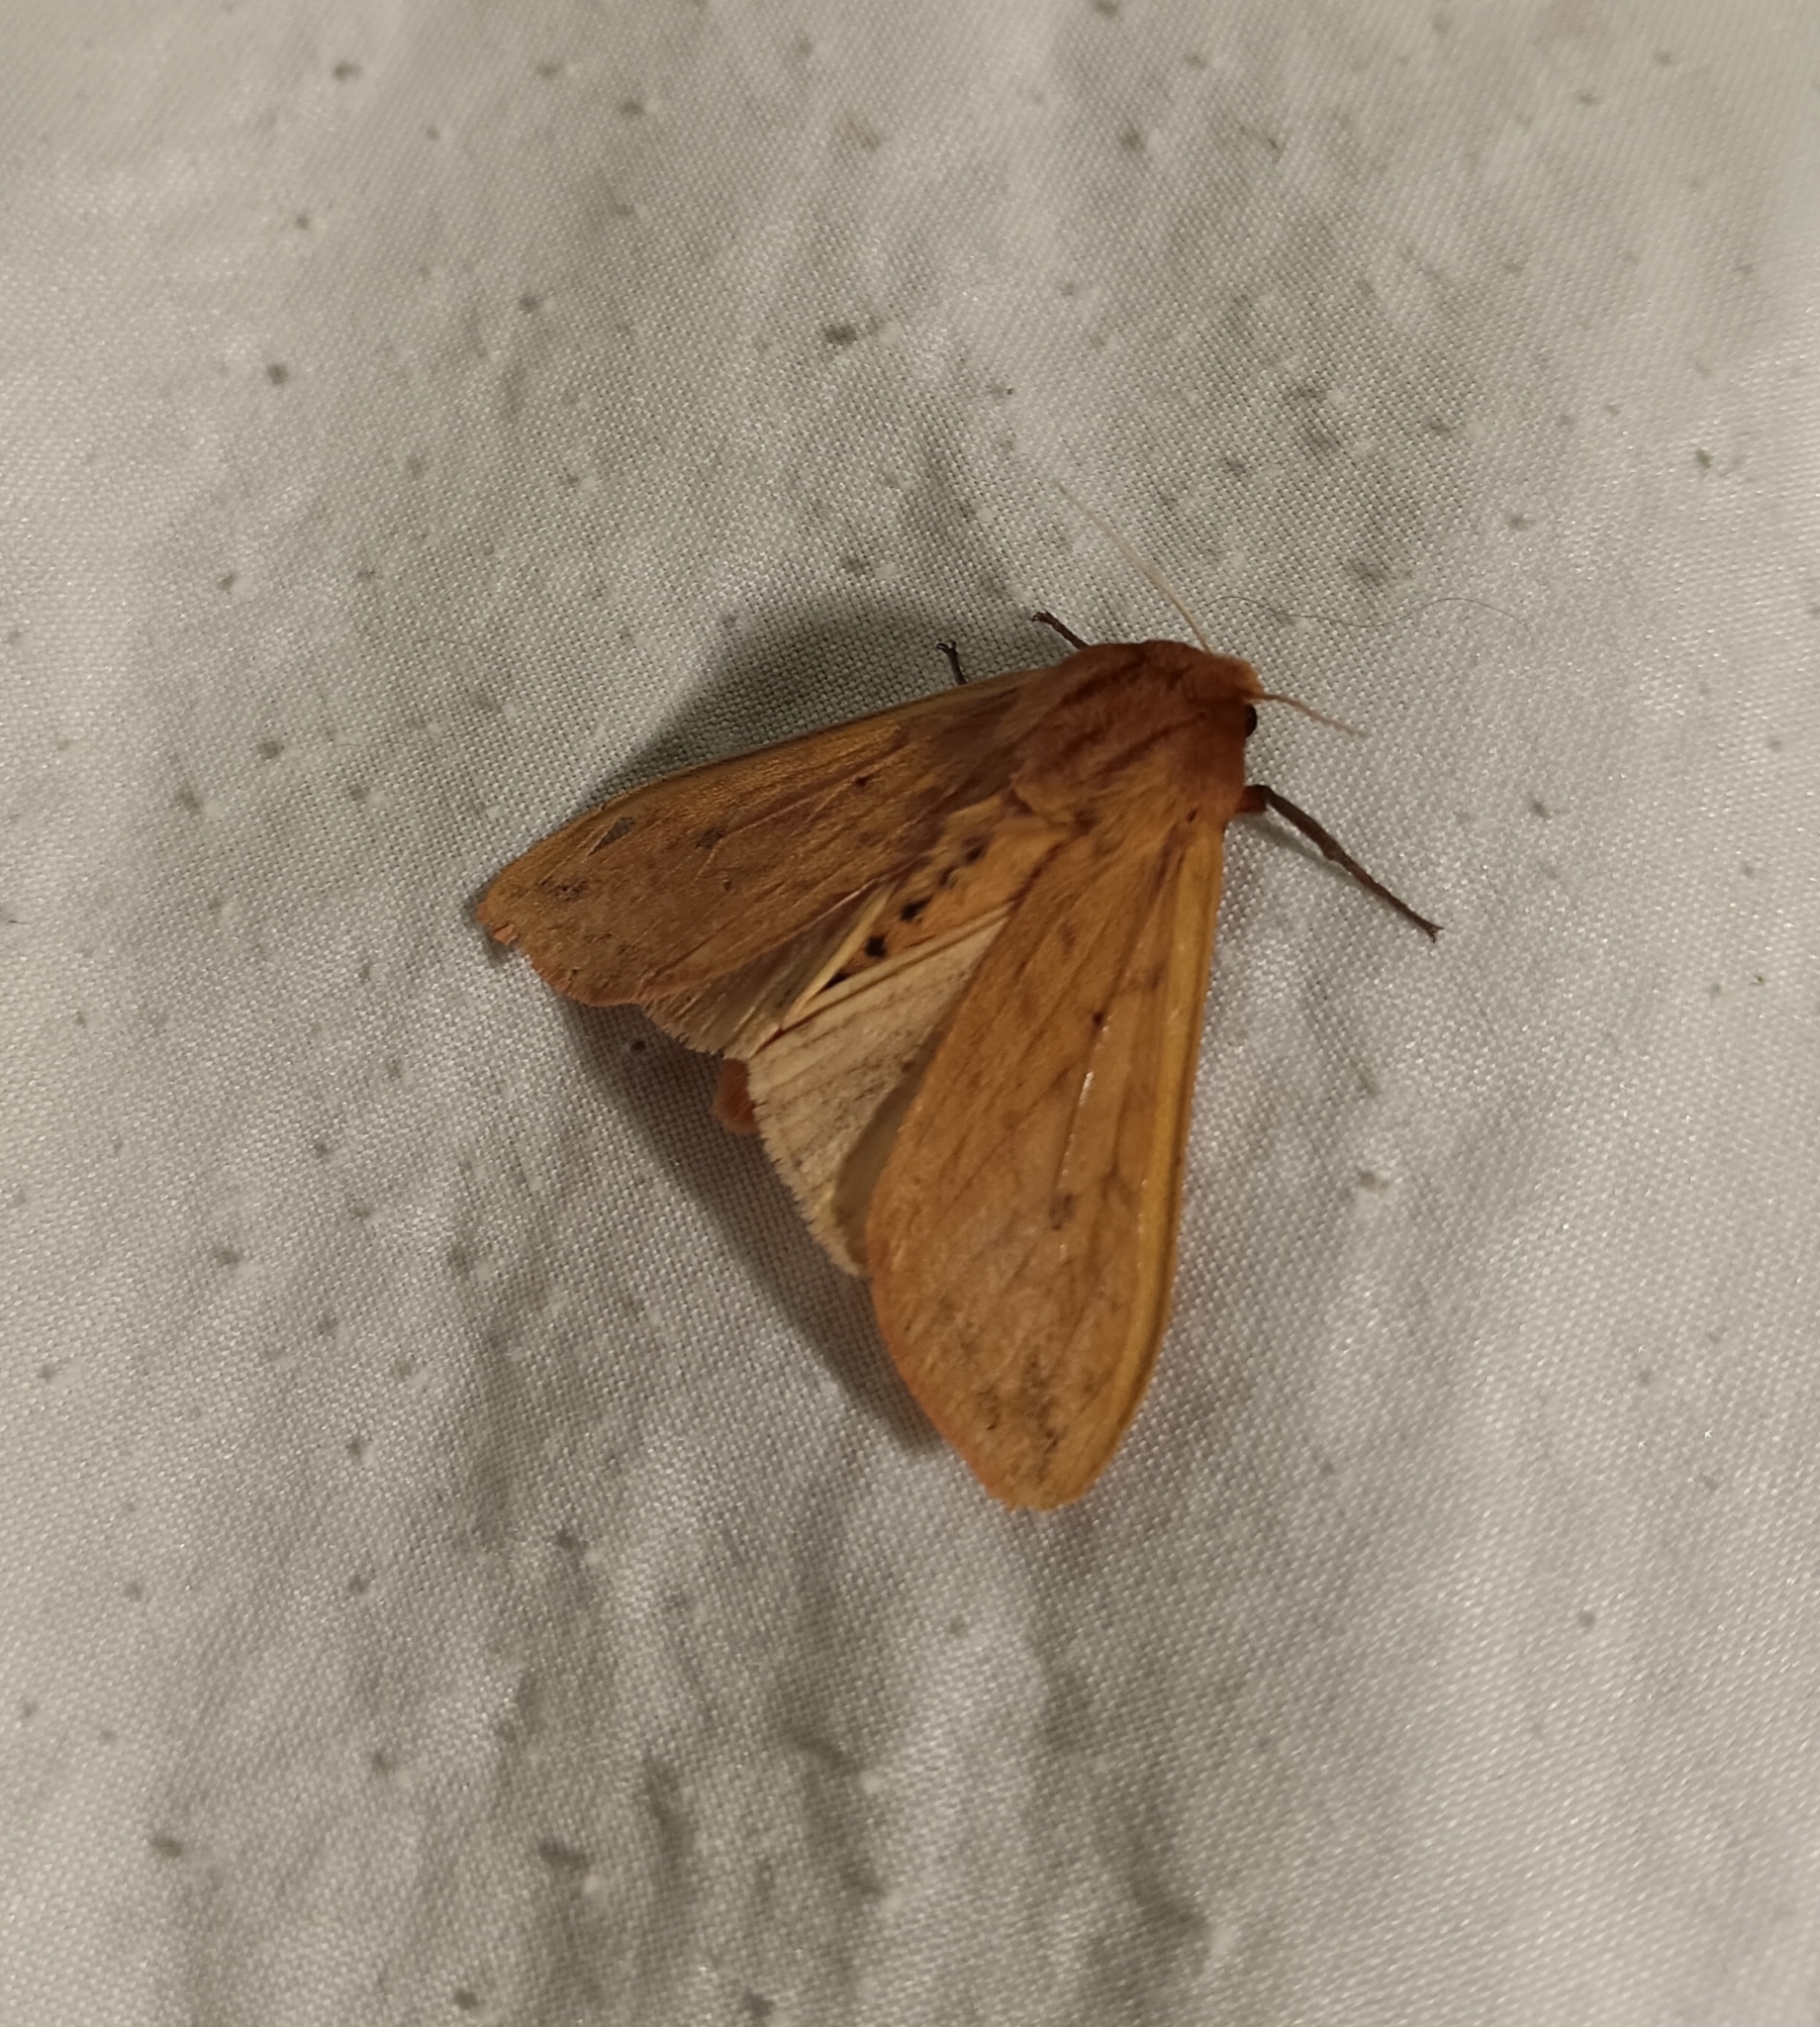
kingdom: Animalia
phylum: Arthropoda
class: Insecta
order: Lepidoptera
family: Erebidae
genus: Pyrrharctia
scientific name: Pyrrharctia isabella
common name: Isabella tiger moth
